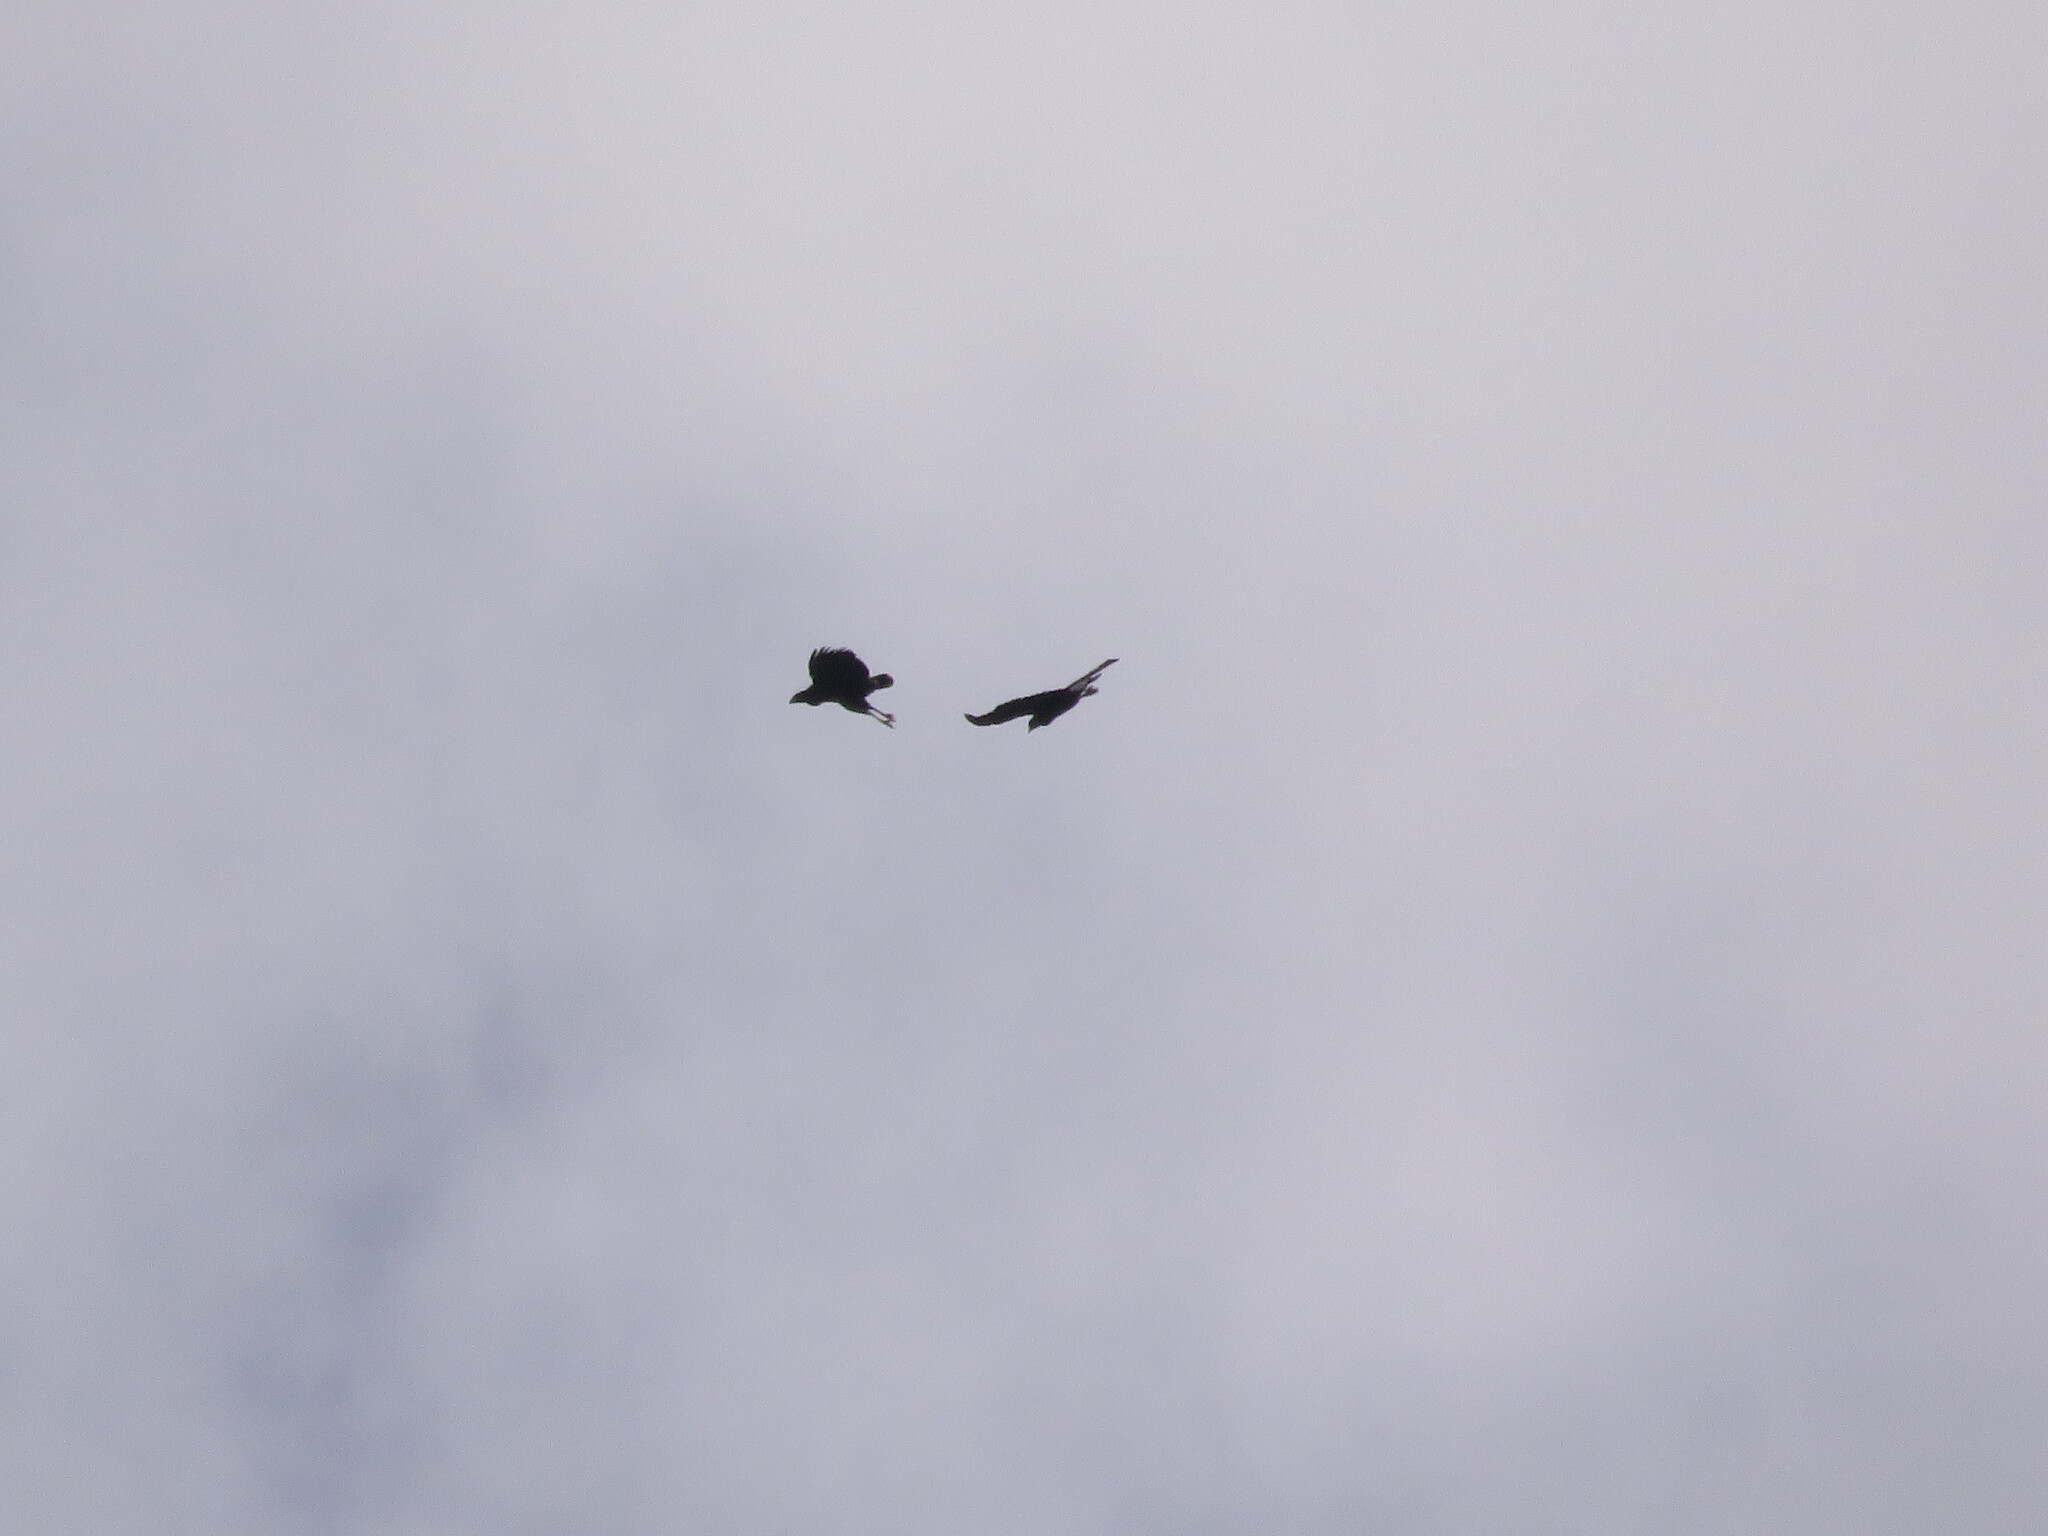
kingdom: Animalia
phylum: Chordata
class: Aves
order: Accipitriformes
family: Accipitridae
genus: Buteogallus
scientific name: Buteogallus urubitinga
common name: Great black hawk
